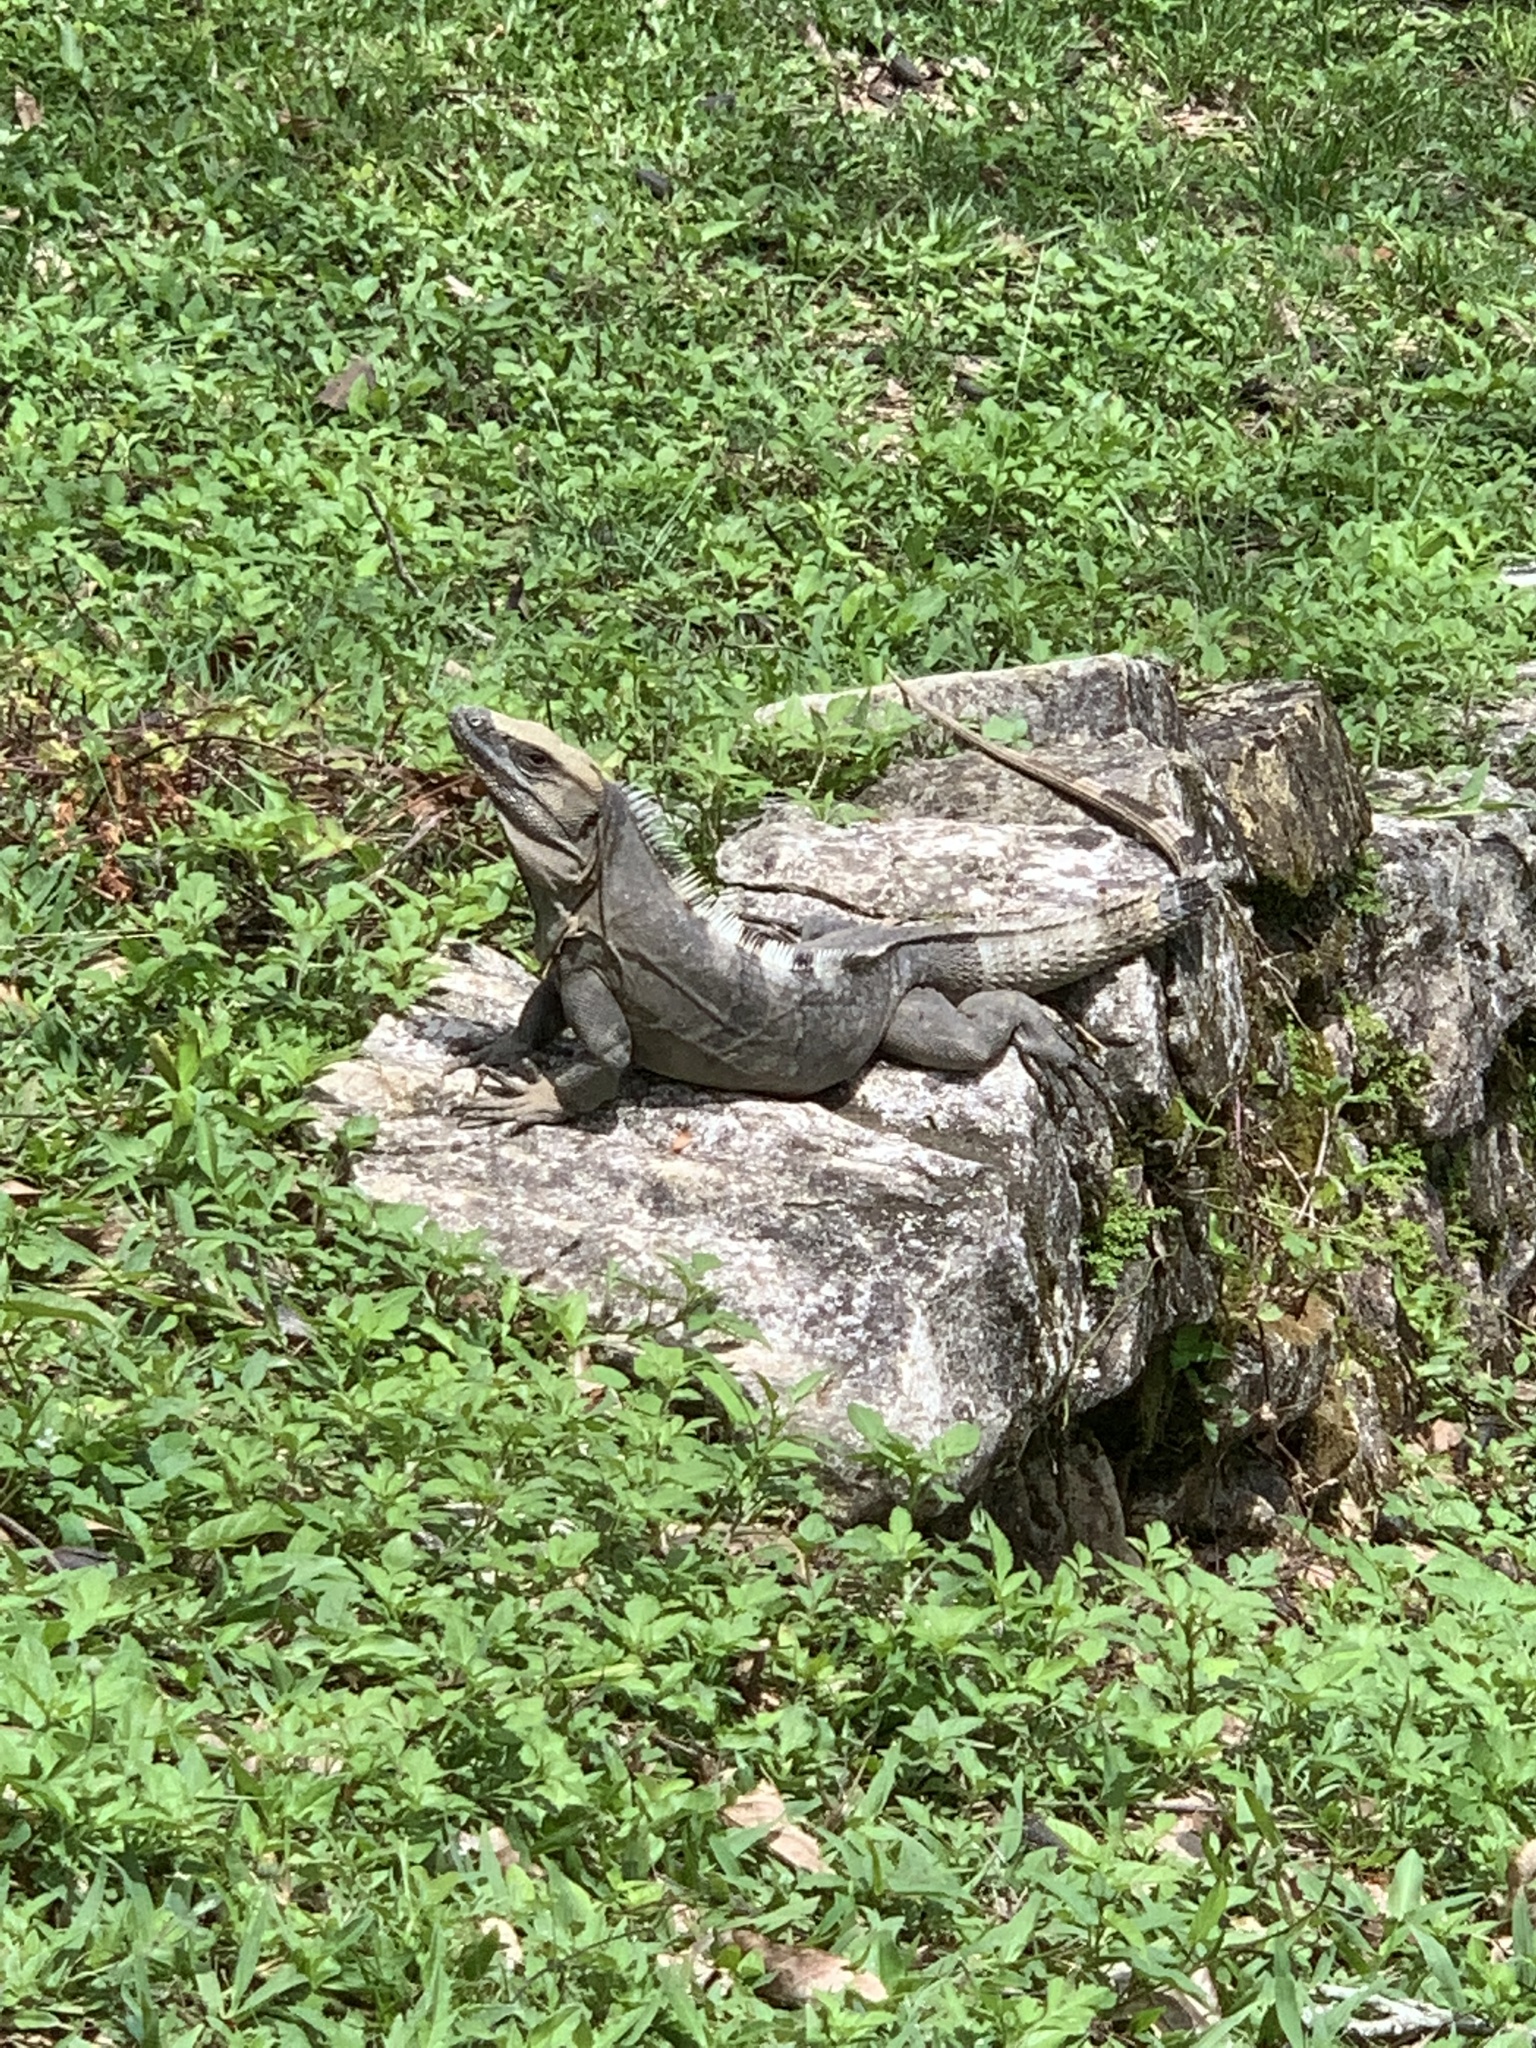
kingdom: Animalia
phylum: Chordata
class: Squamata
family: Iguanidae
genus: Ctenosaura
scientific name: Ctenosaura similis
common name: Black spiny-tailed iguana
